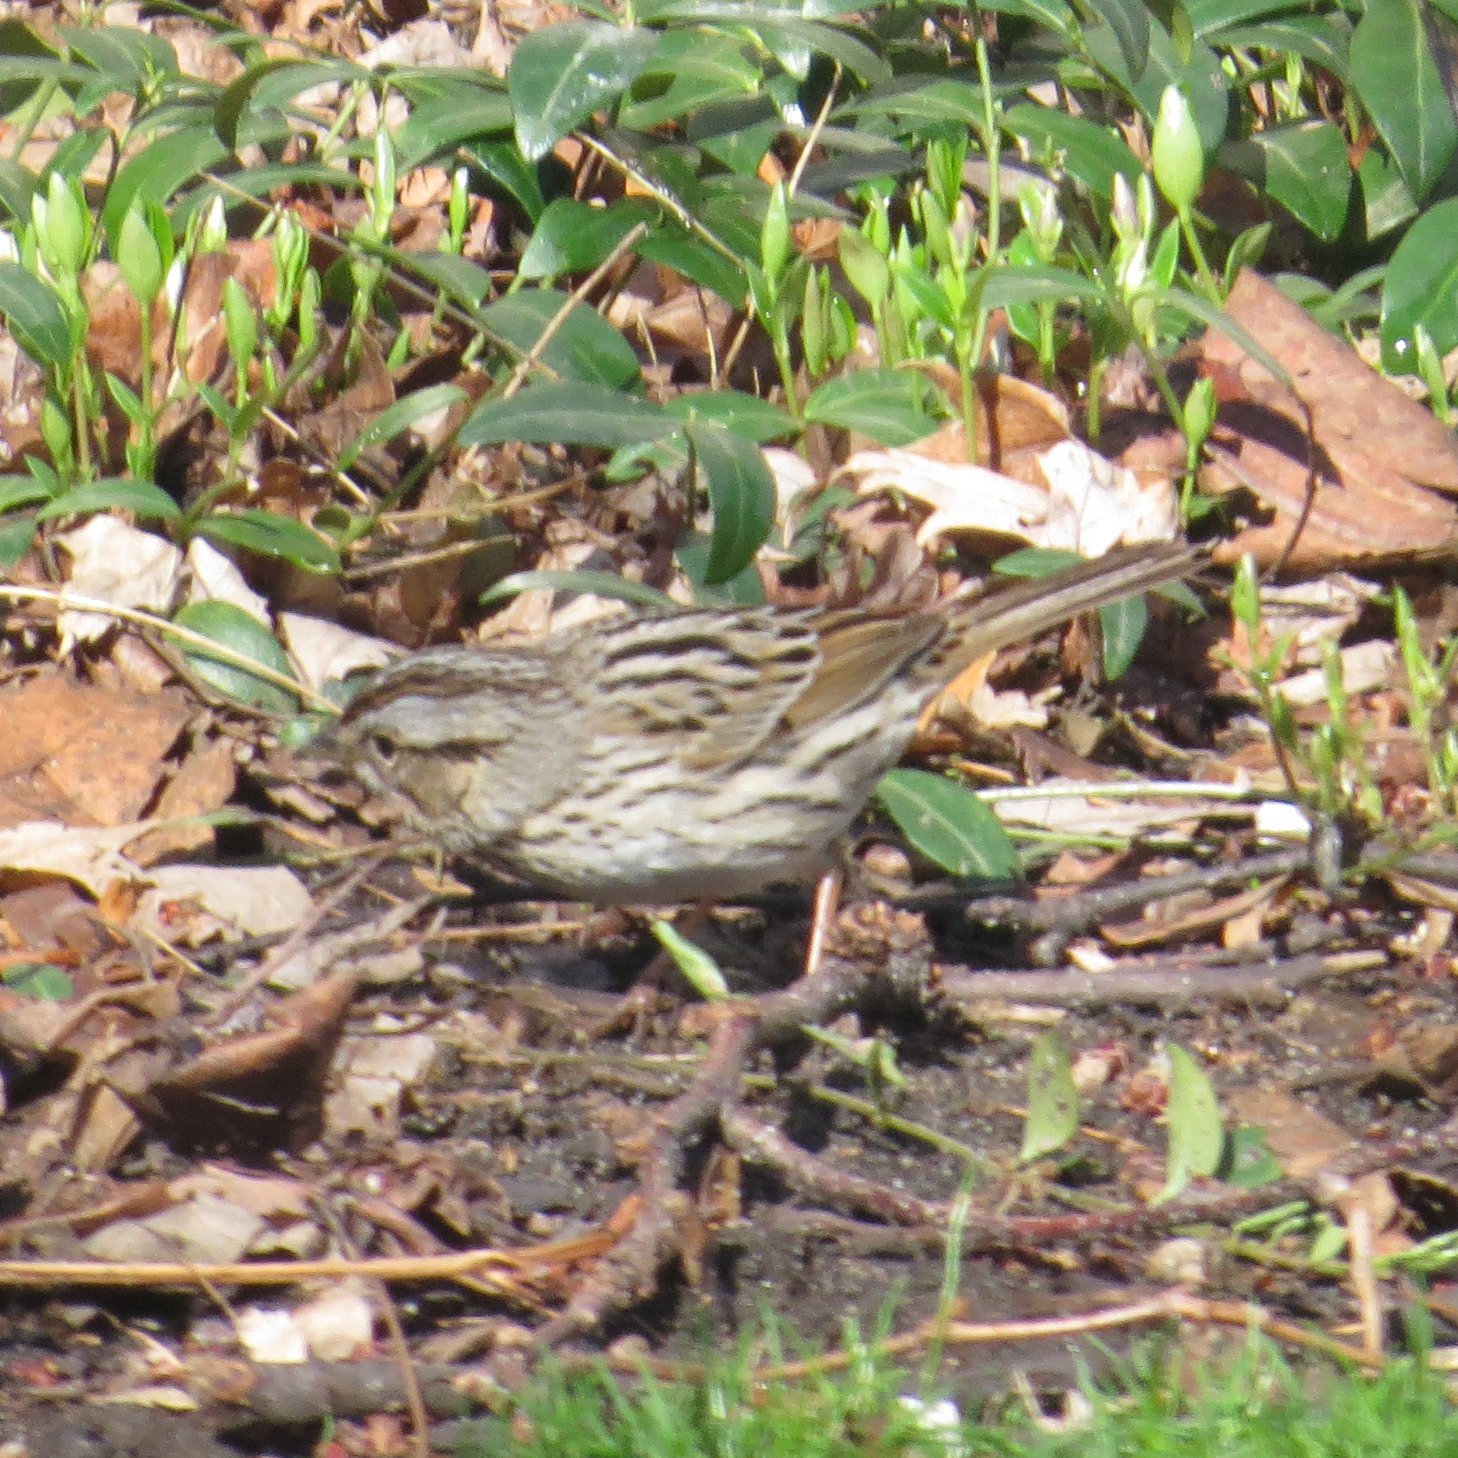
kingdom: Animalia
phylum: Chordata
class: Aves
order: Passeriformes
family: Passerellidae
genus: Melospiza
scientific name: Melospiza lincolnii
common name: Lincoln's sparrow
